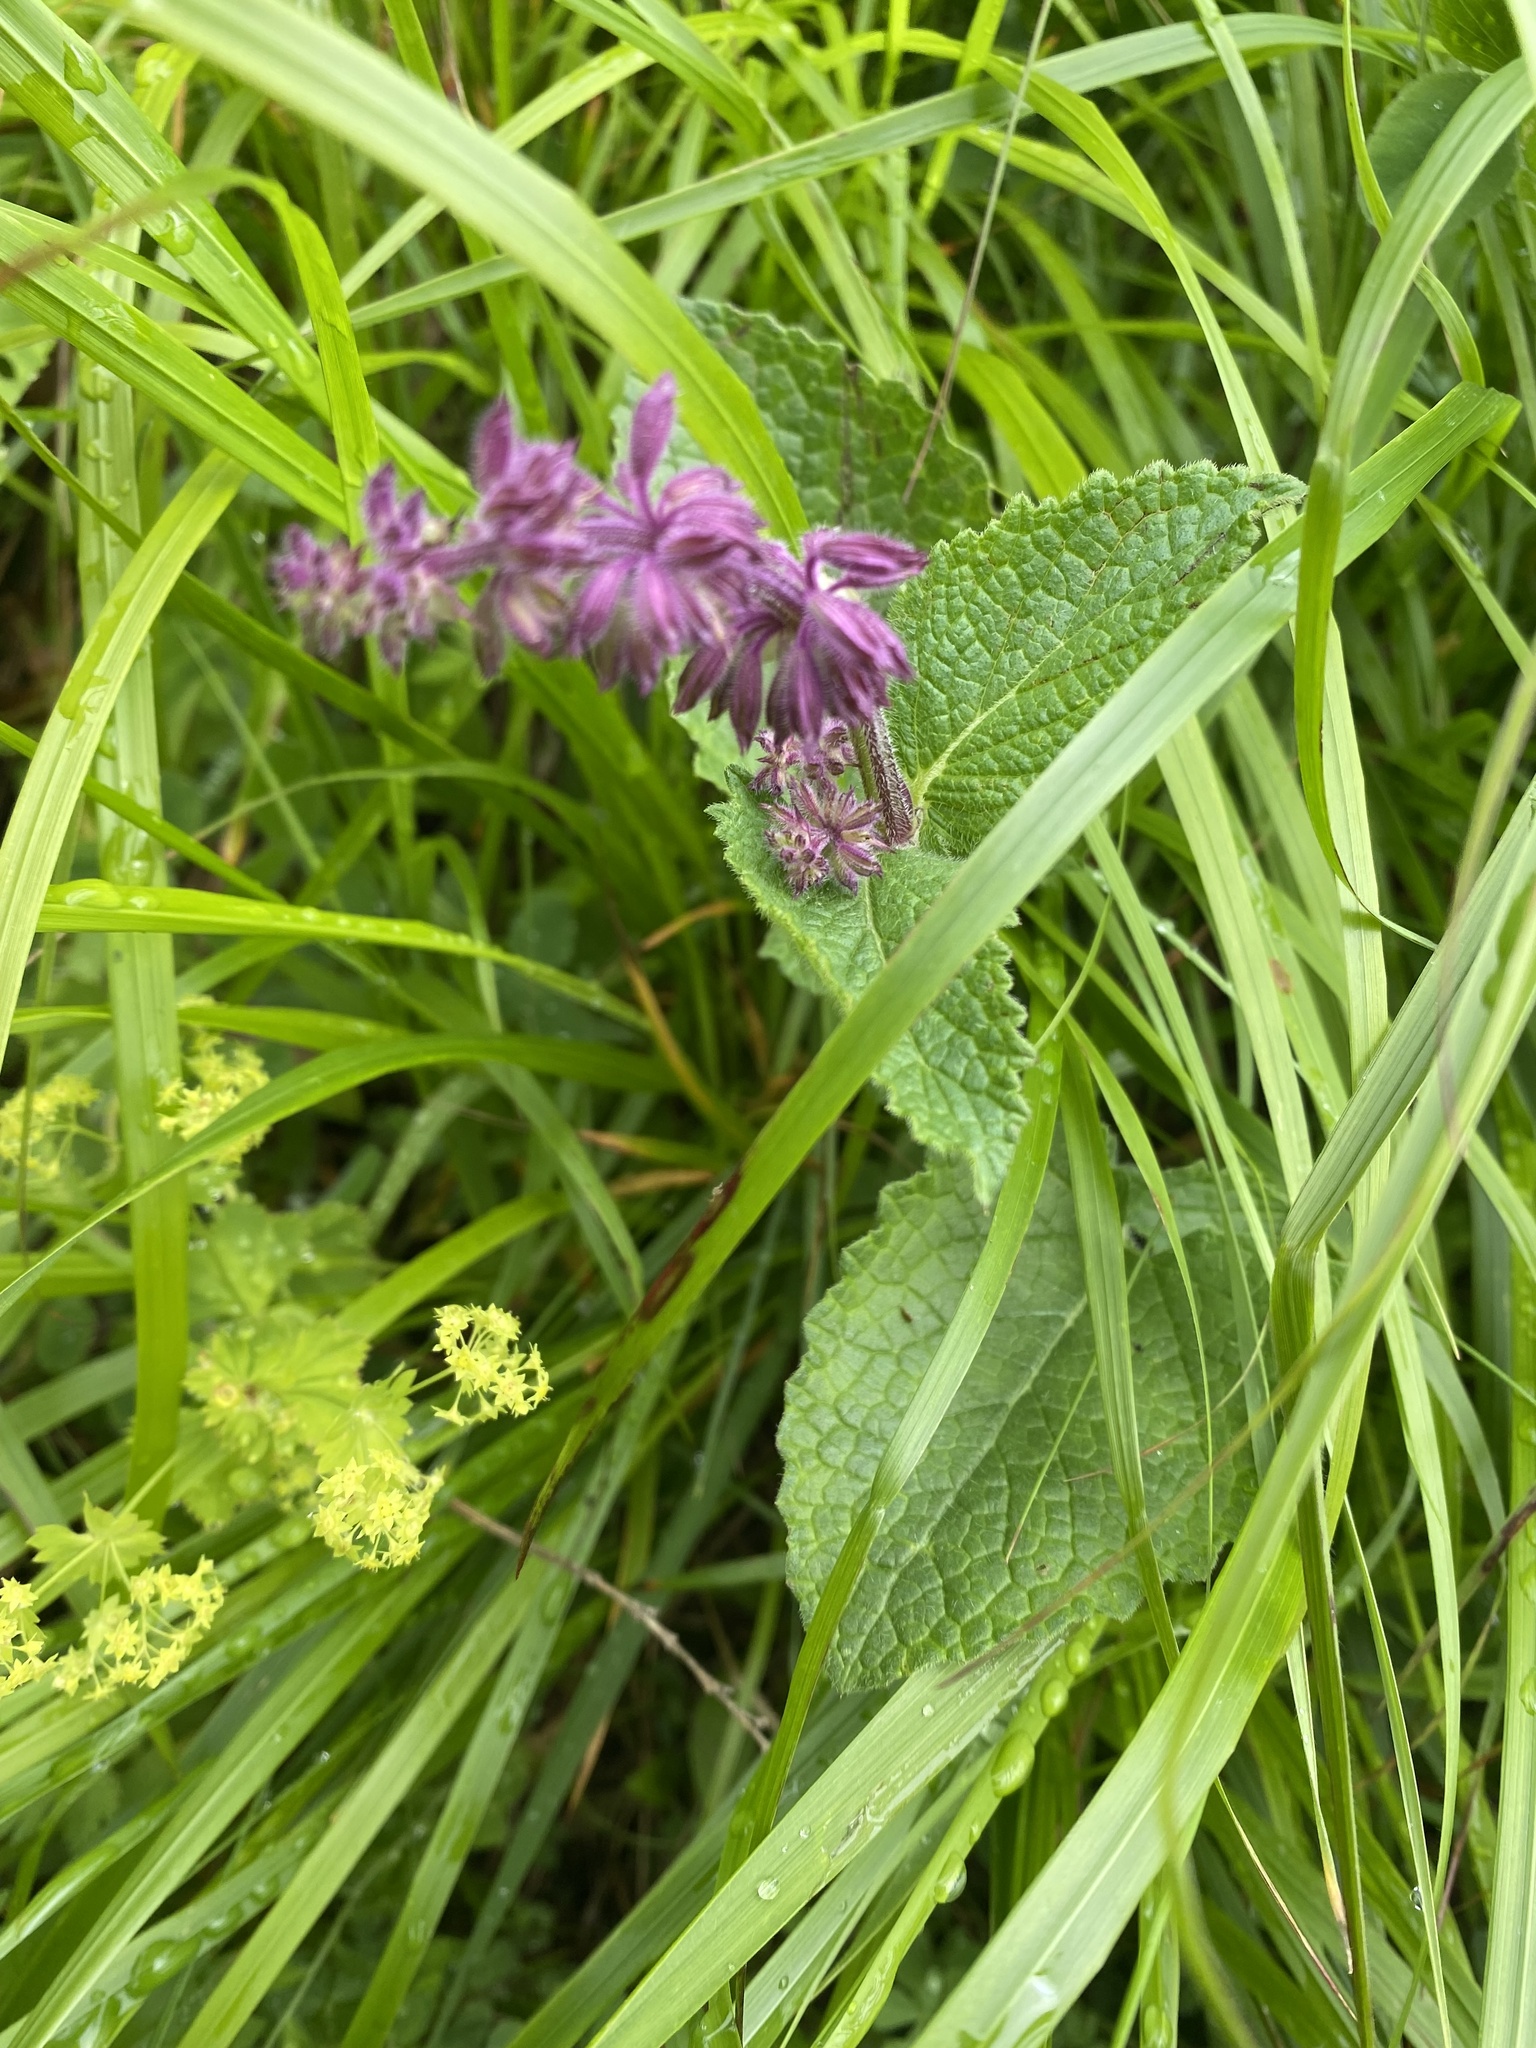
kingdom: Plantae
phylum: Tracheophyta
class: Magnoliopsida
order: Lamiales
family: Lamiaceae
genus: Salvia
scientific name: Salvia verticillata
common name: Whorled clary
